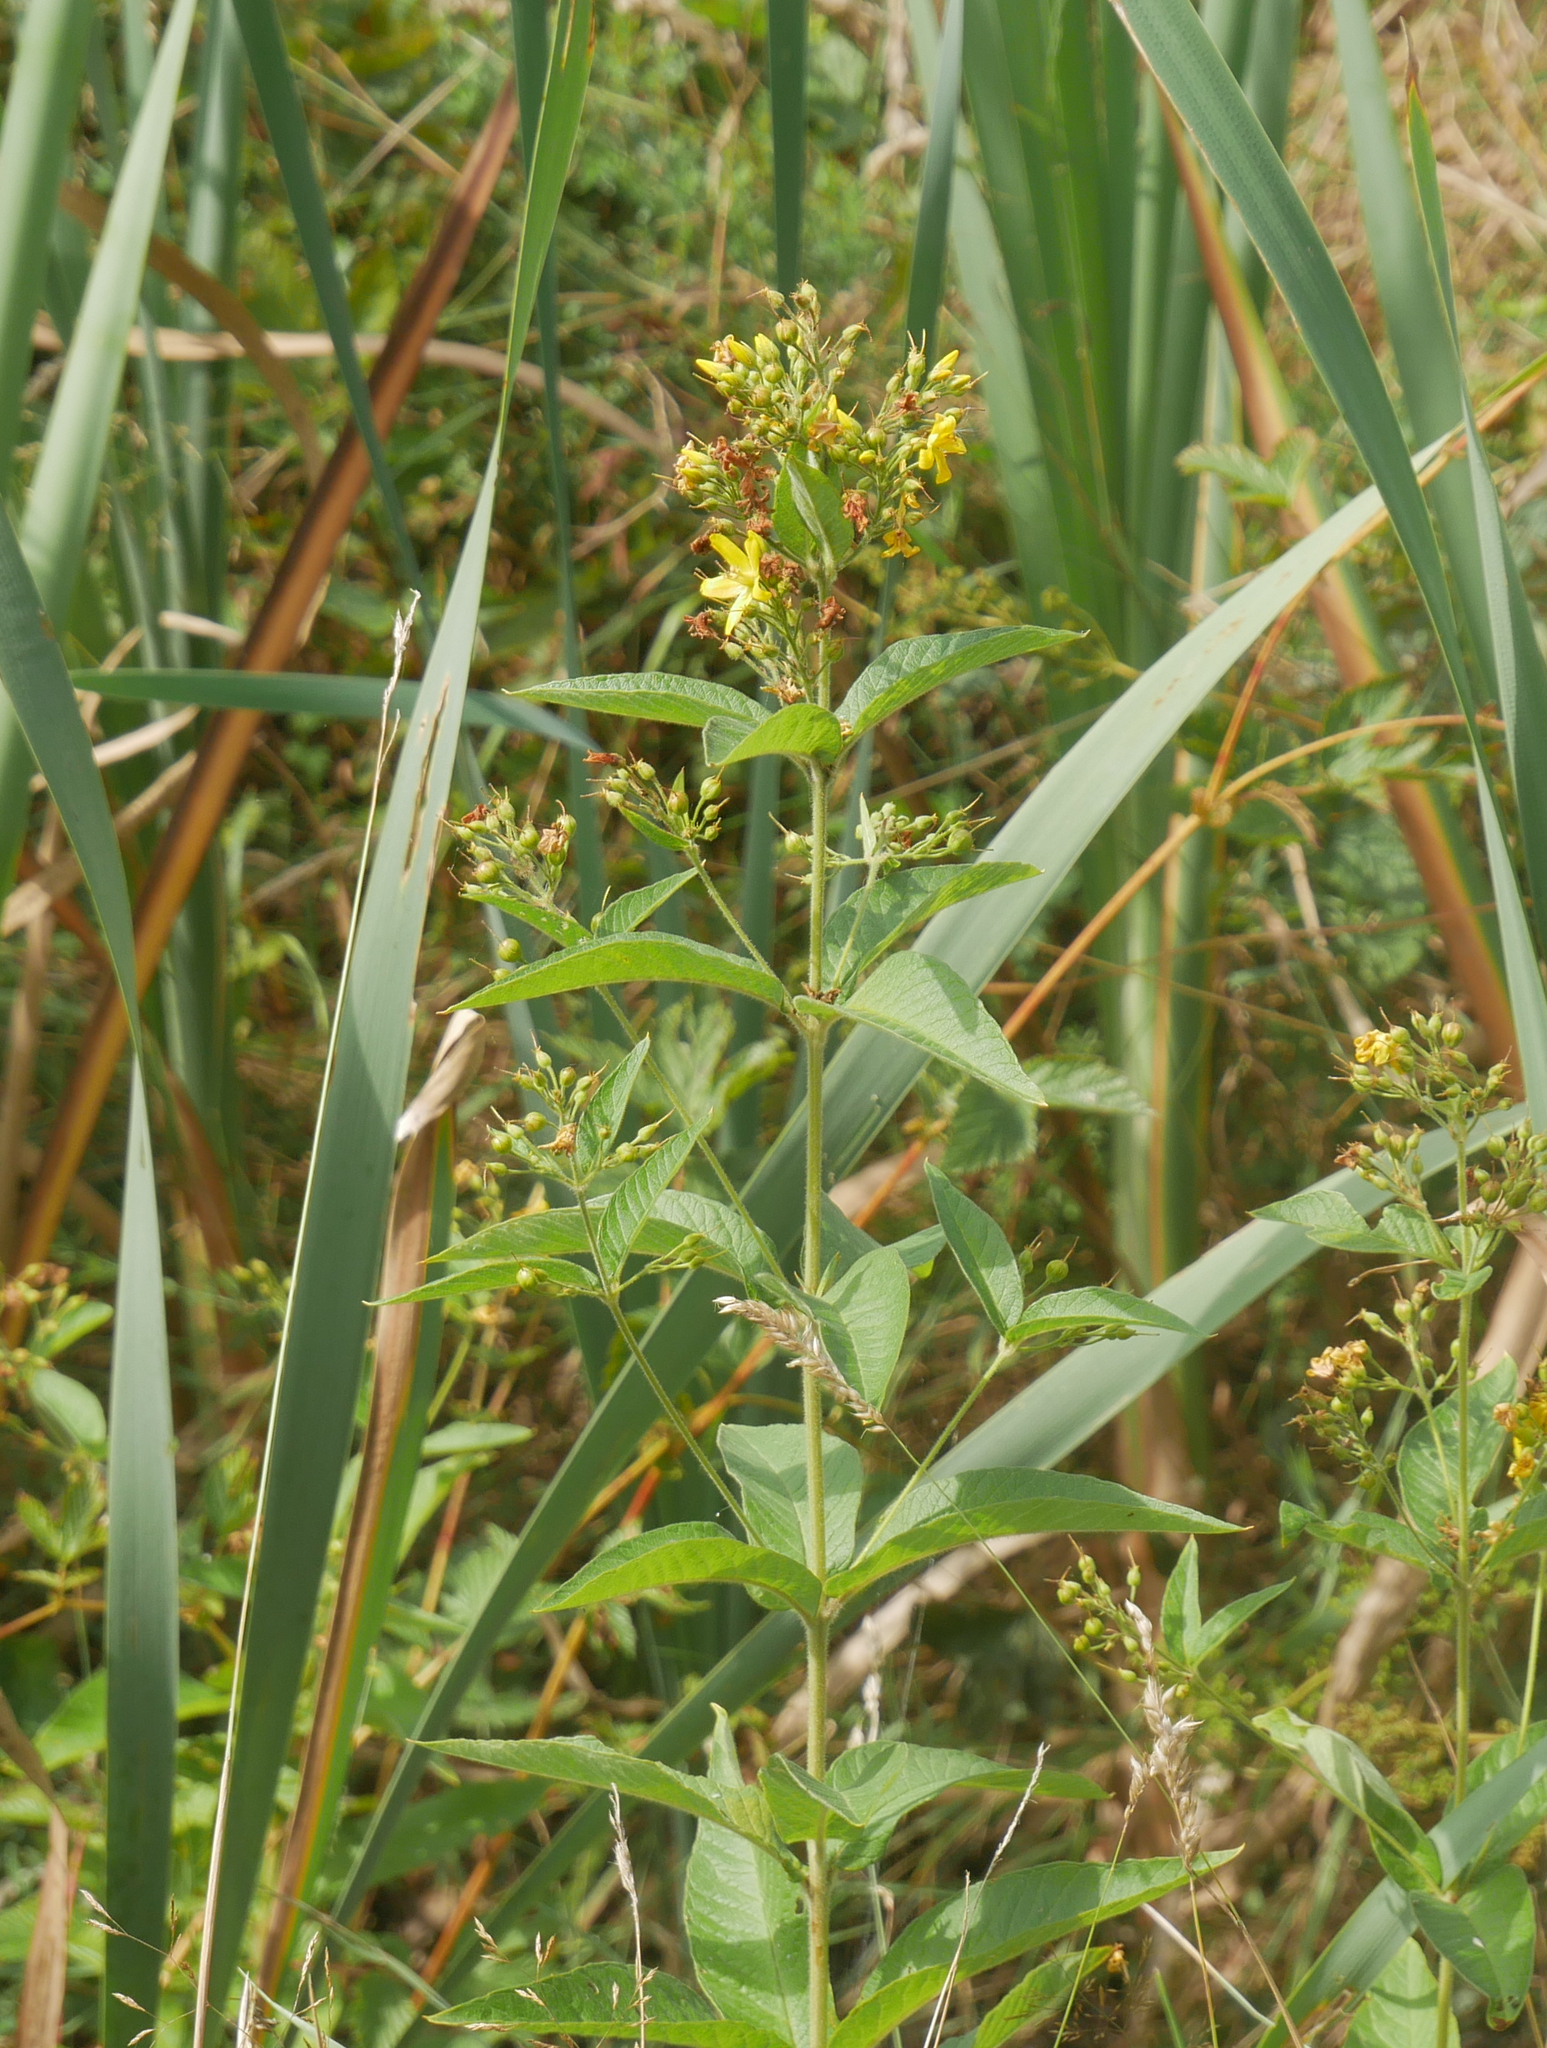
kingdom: Plantae
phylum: Tracheophyta
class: Magnoliopsida
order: Ericales
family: Primulaceae
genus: Lysimachia
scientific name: Lysimachia vulgaris
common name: Yellow loosestrife
